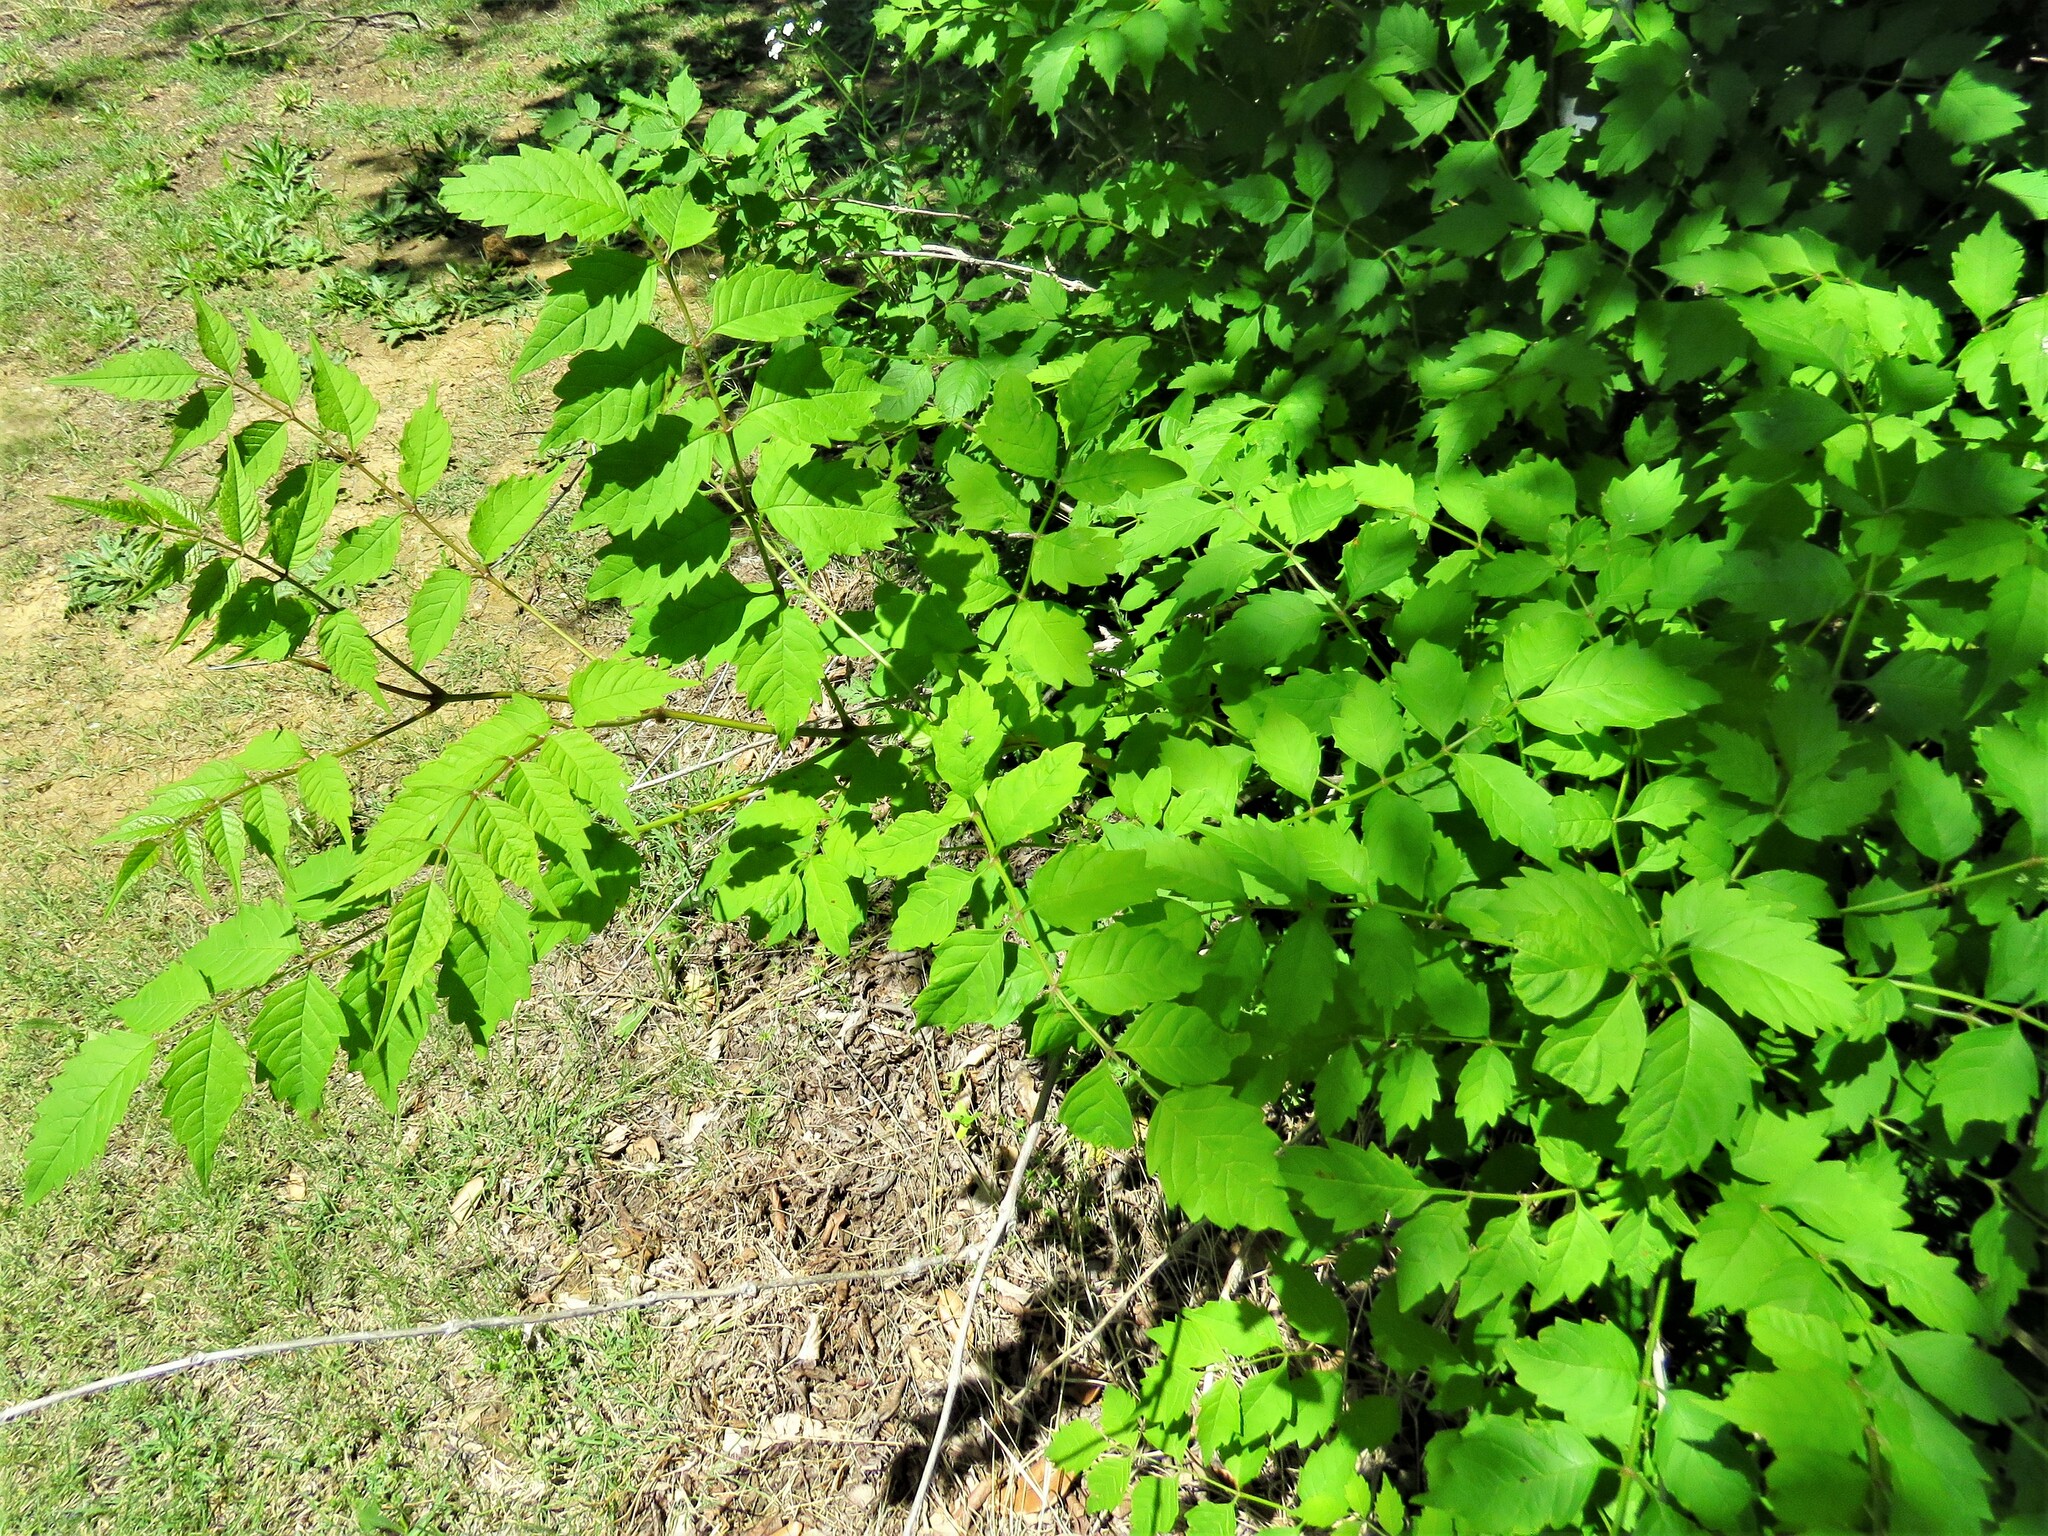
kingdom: Plantae
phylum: Tracheophyta
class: Magnoliopsida
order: Lamiales
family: Bignoniaceae
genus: Campsis
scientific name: Campsis radicans
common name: Trumpet-creeper
